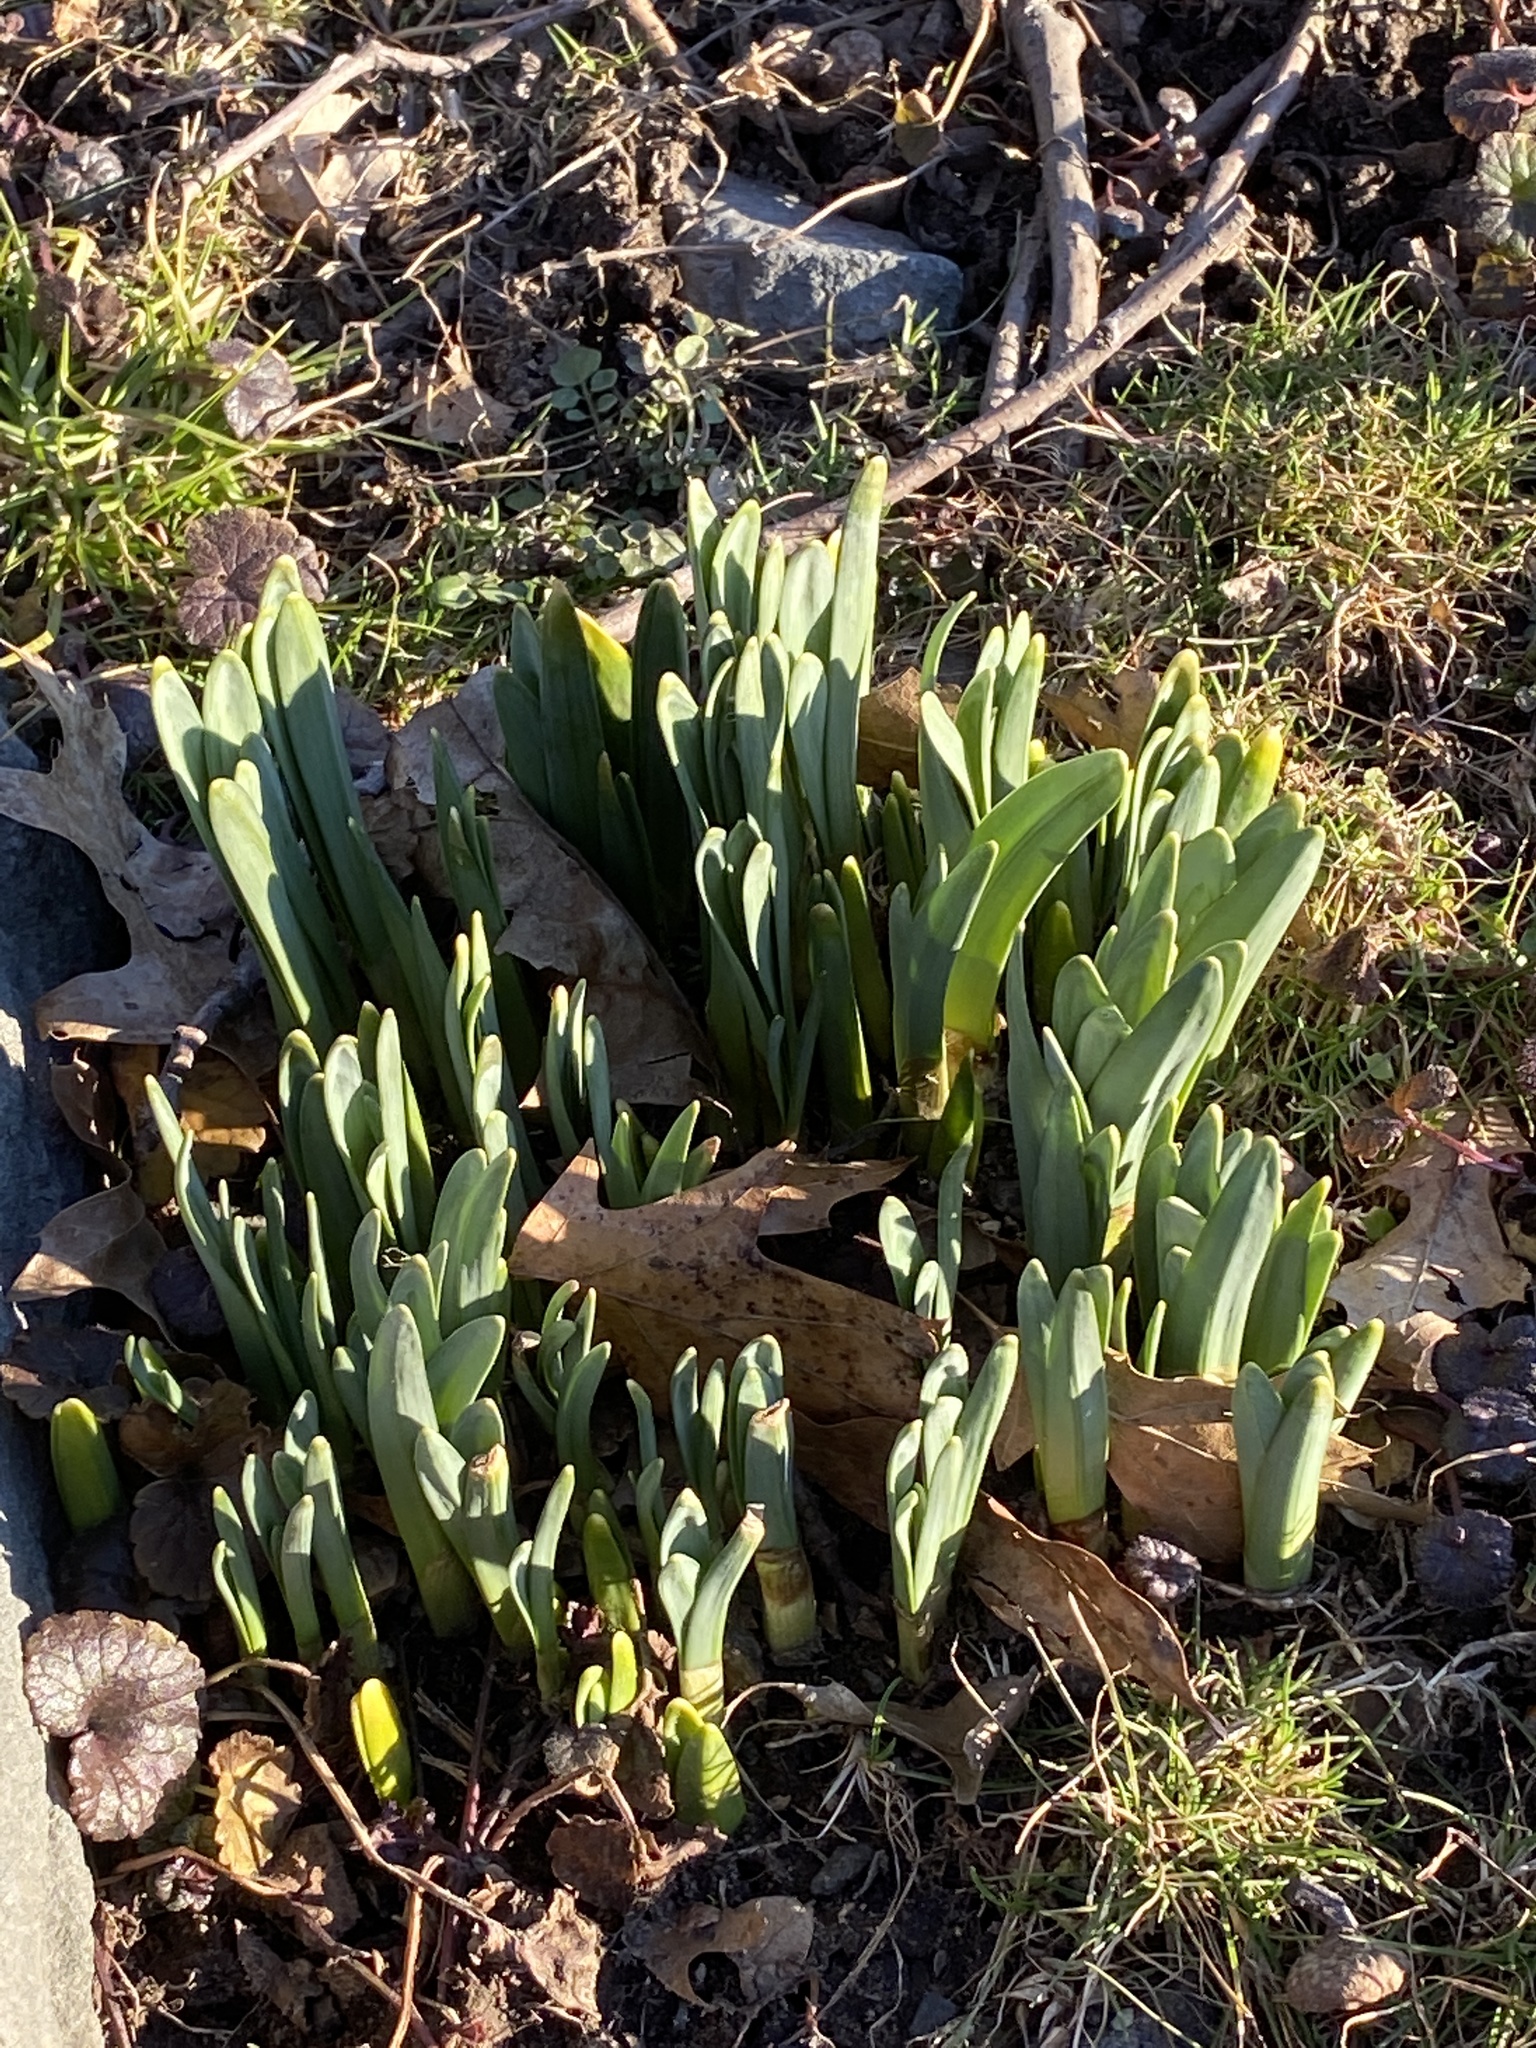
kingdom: Plantae
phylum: Tracheophyta
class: Liliopsida
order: Asparagales
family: Amaryllidaceae
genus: Narcissus
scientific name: Narcissus
